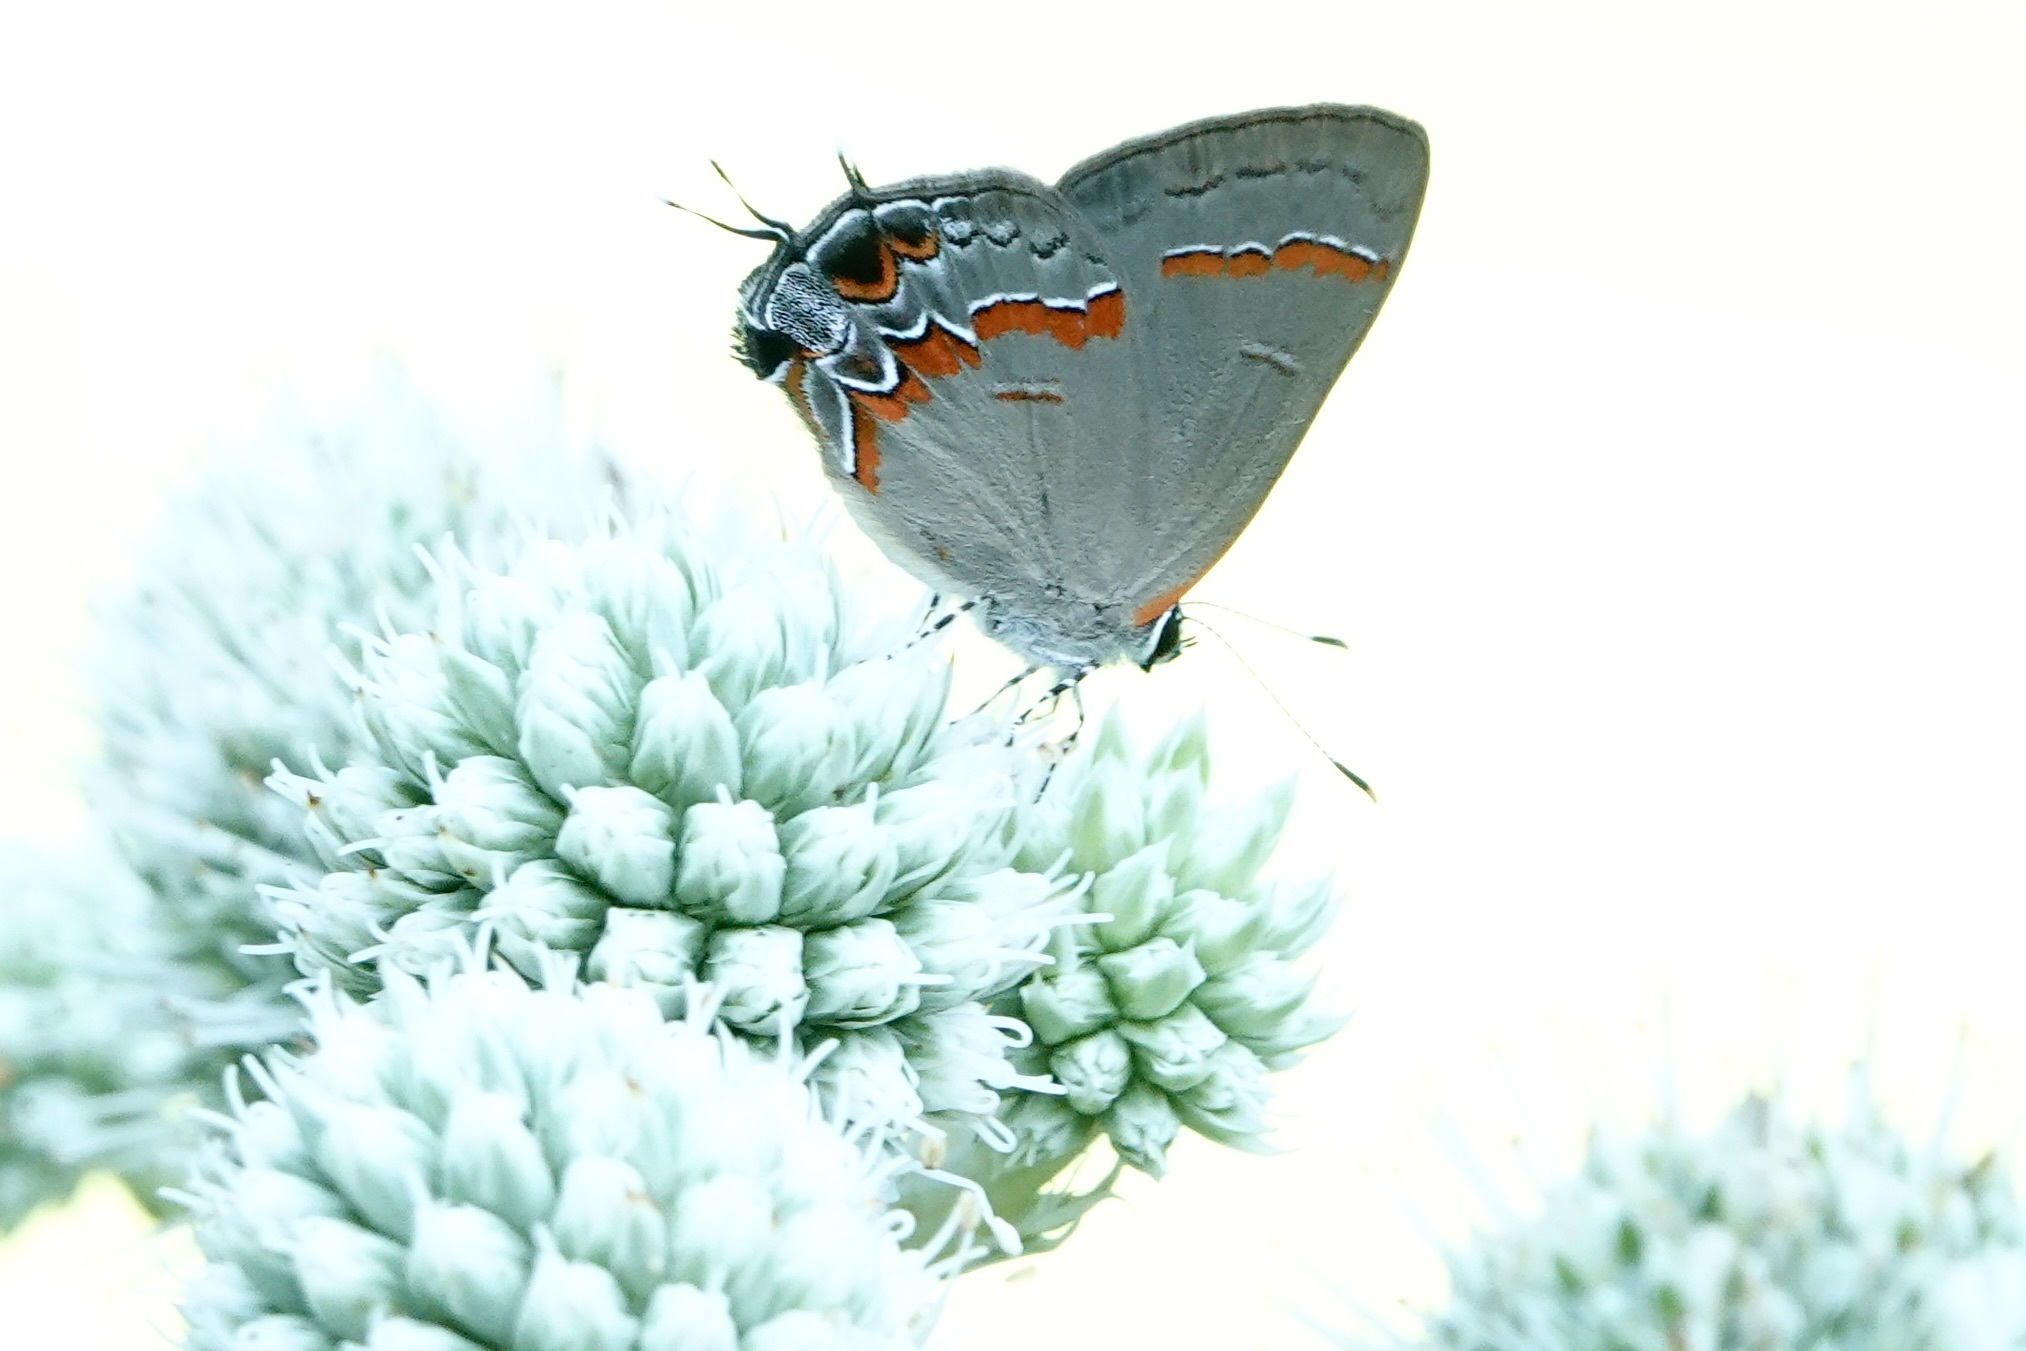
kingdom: Animalia
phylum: Arthropoda
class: Insecta
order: Lepidoptera
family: Lycaenidae
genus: Calycopis
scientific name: Calycopis cecrops
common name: Red-banded hairstreak
